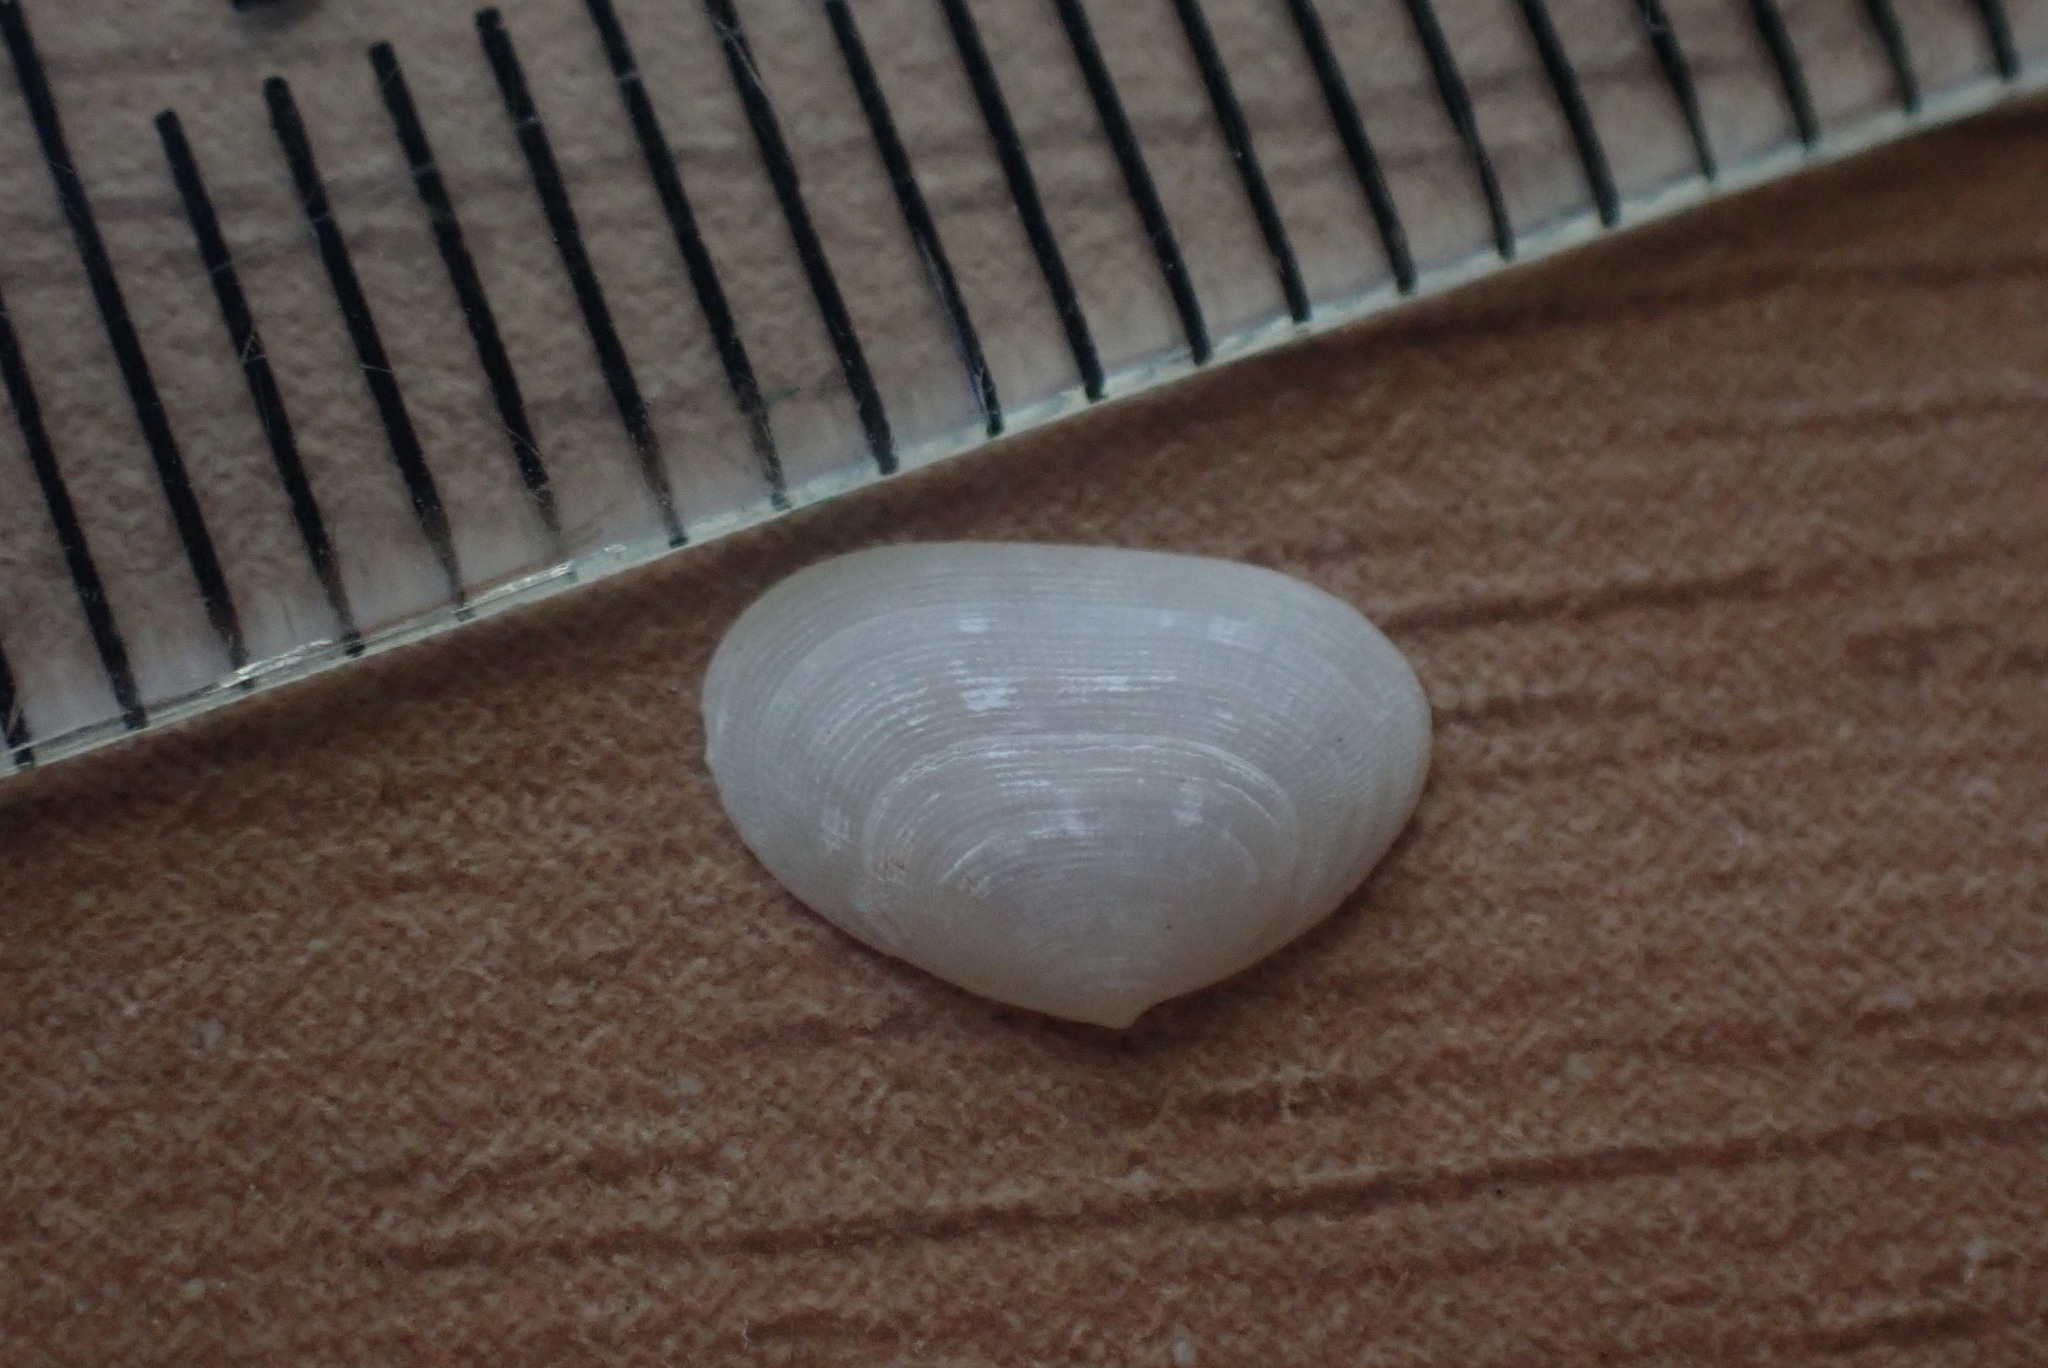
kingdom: Animalia
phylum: Mollusca
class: Bivalvia
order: Galeommatida
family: Lasaeidae
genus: Borniola
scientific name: Borniola reniformis
